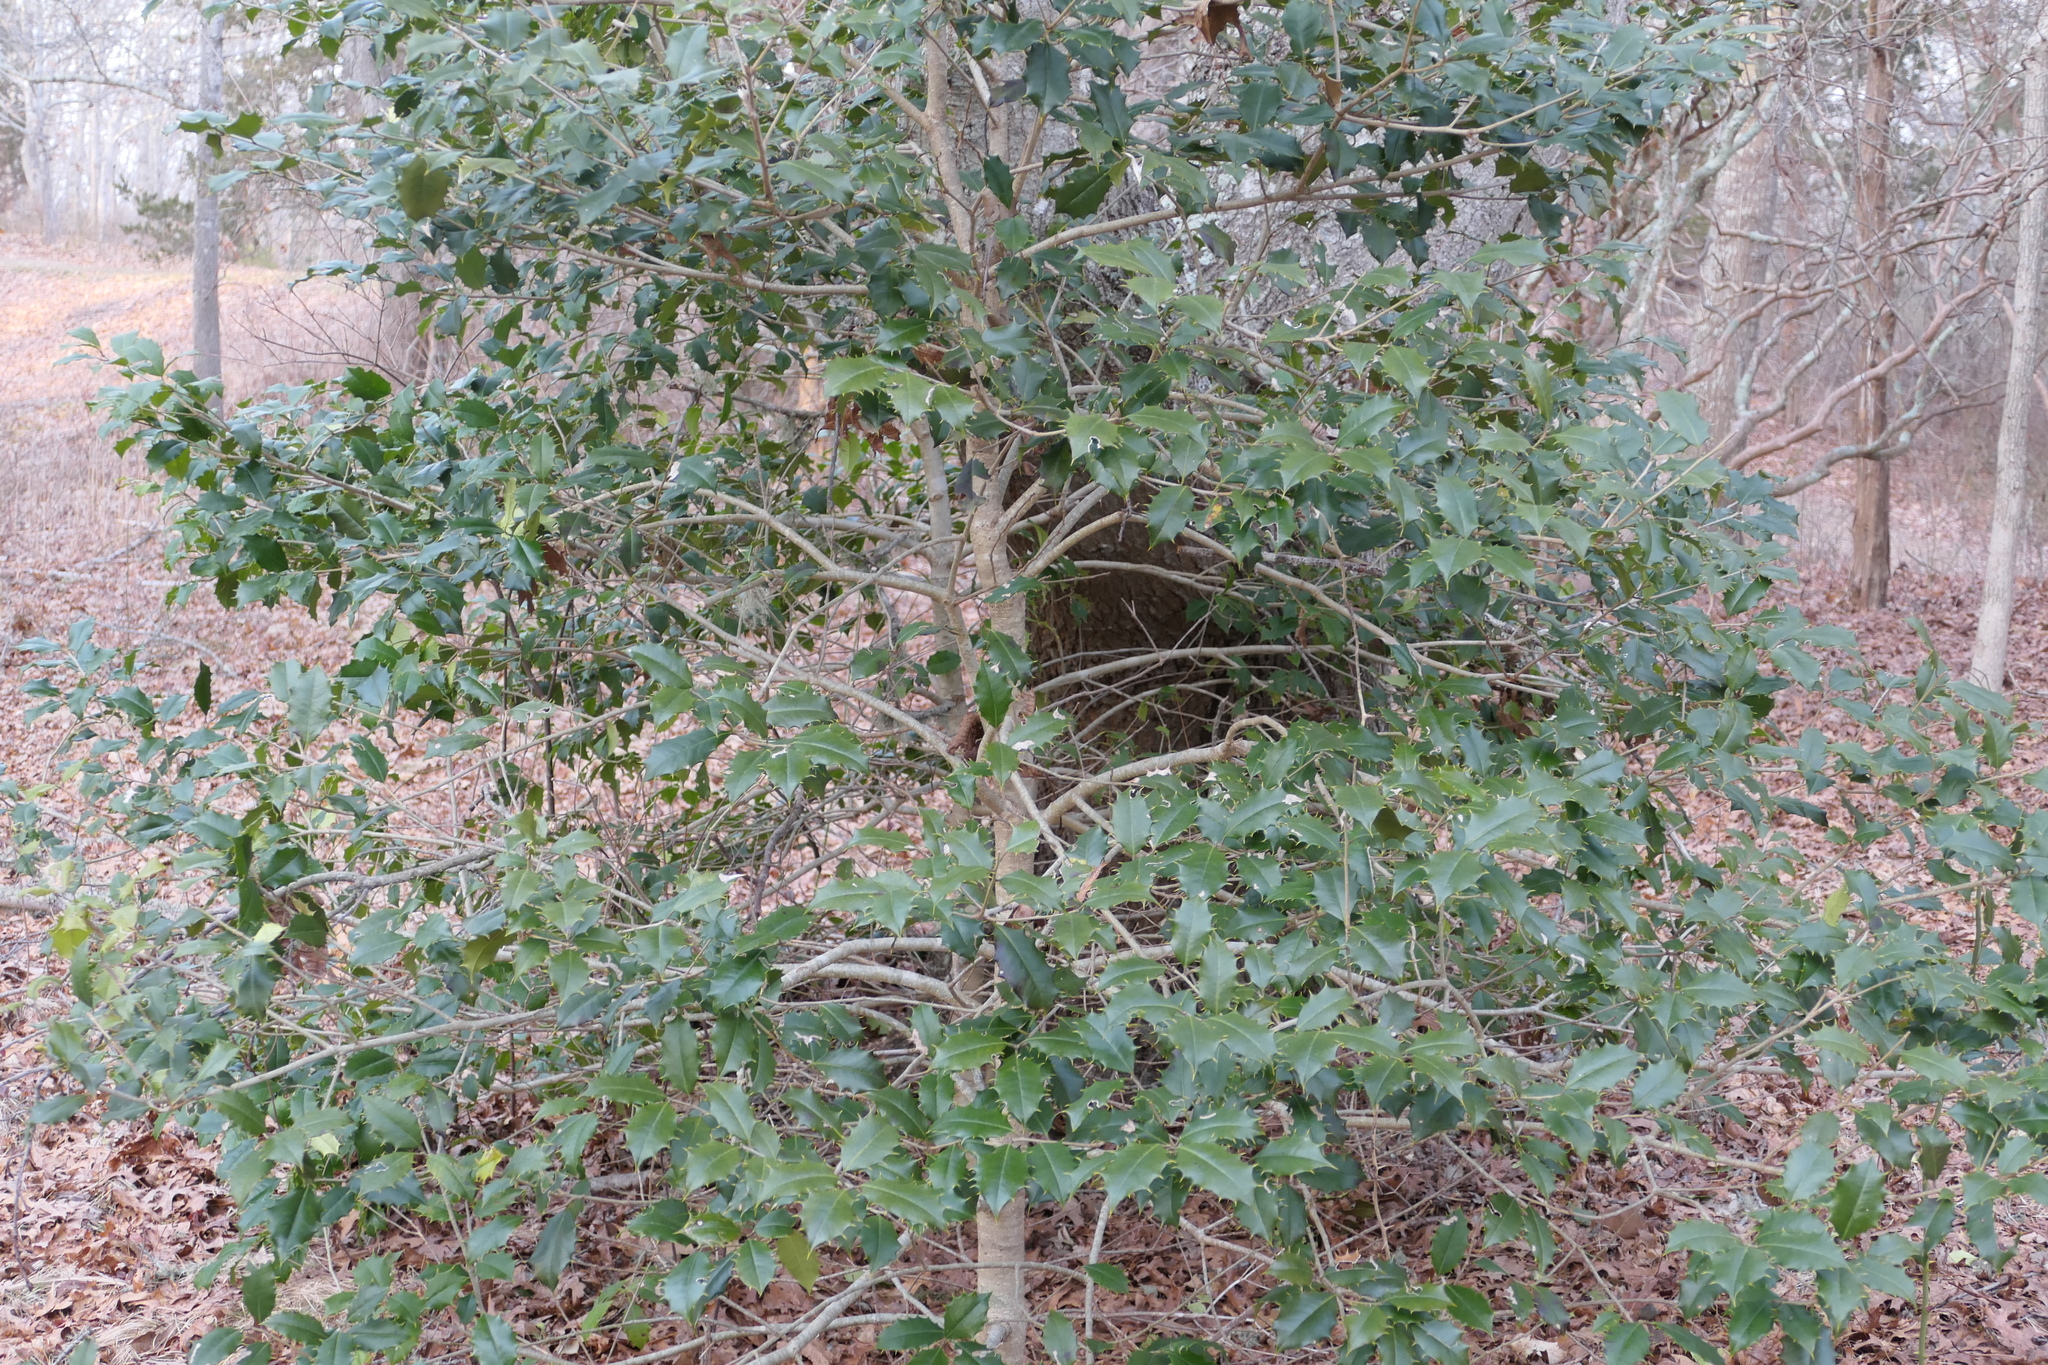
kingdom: Plantae
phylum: Tracheophyta
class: Magnoliopsida
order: Aquifoliales
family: Aquifoliaceae
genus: Ilex
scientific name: Ilex opaca
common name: American holly
